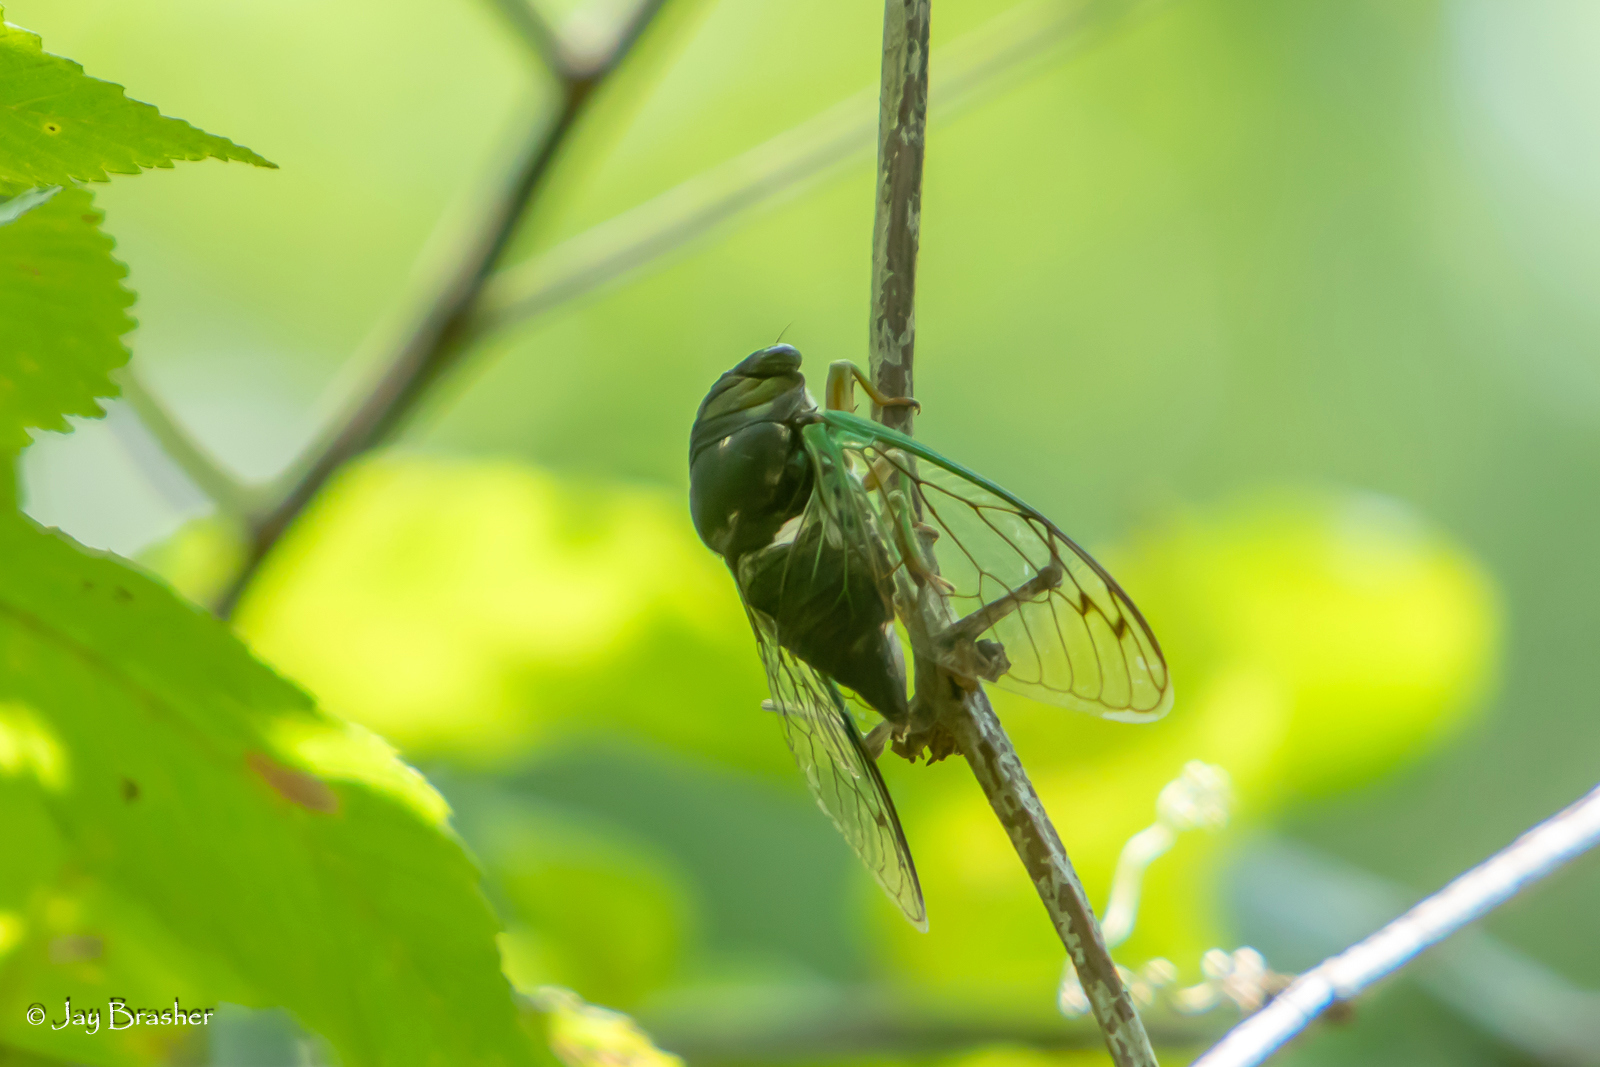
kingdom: Animalia
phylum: Arthropoda
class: Insecta
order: Hemiptera
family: Cicadidae
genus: Neotibicen
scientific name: Neotibicen tibicen
